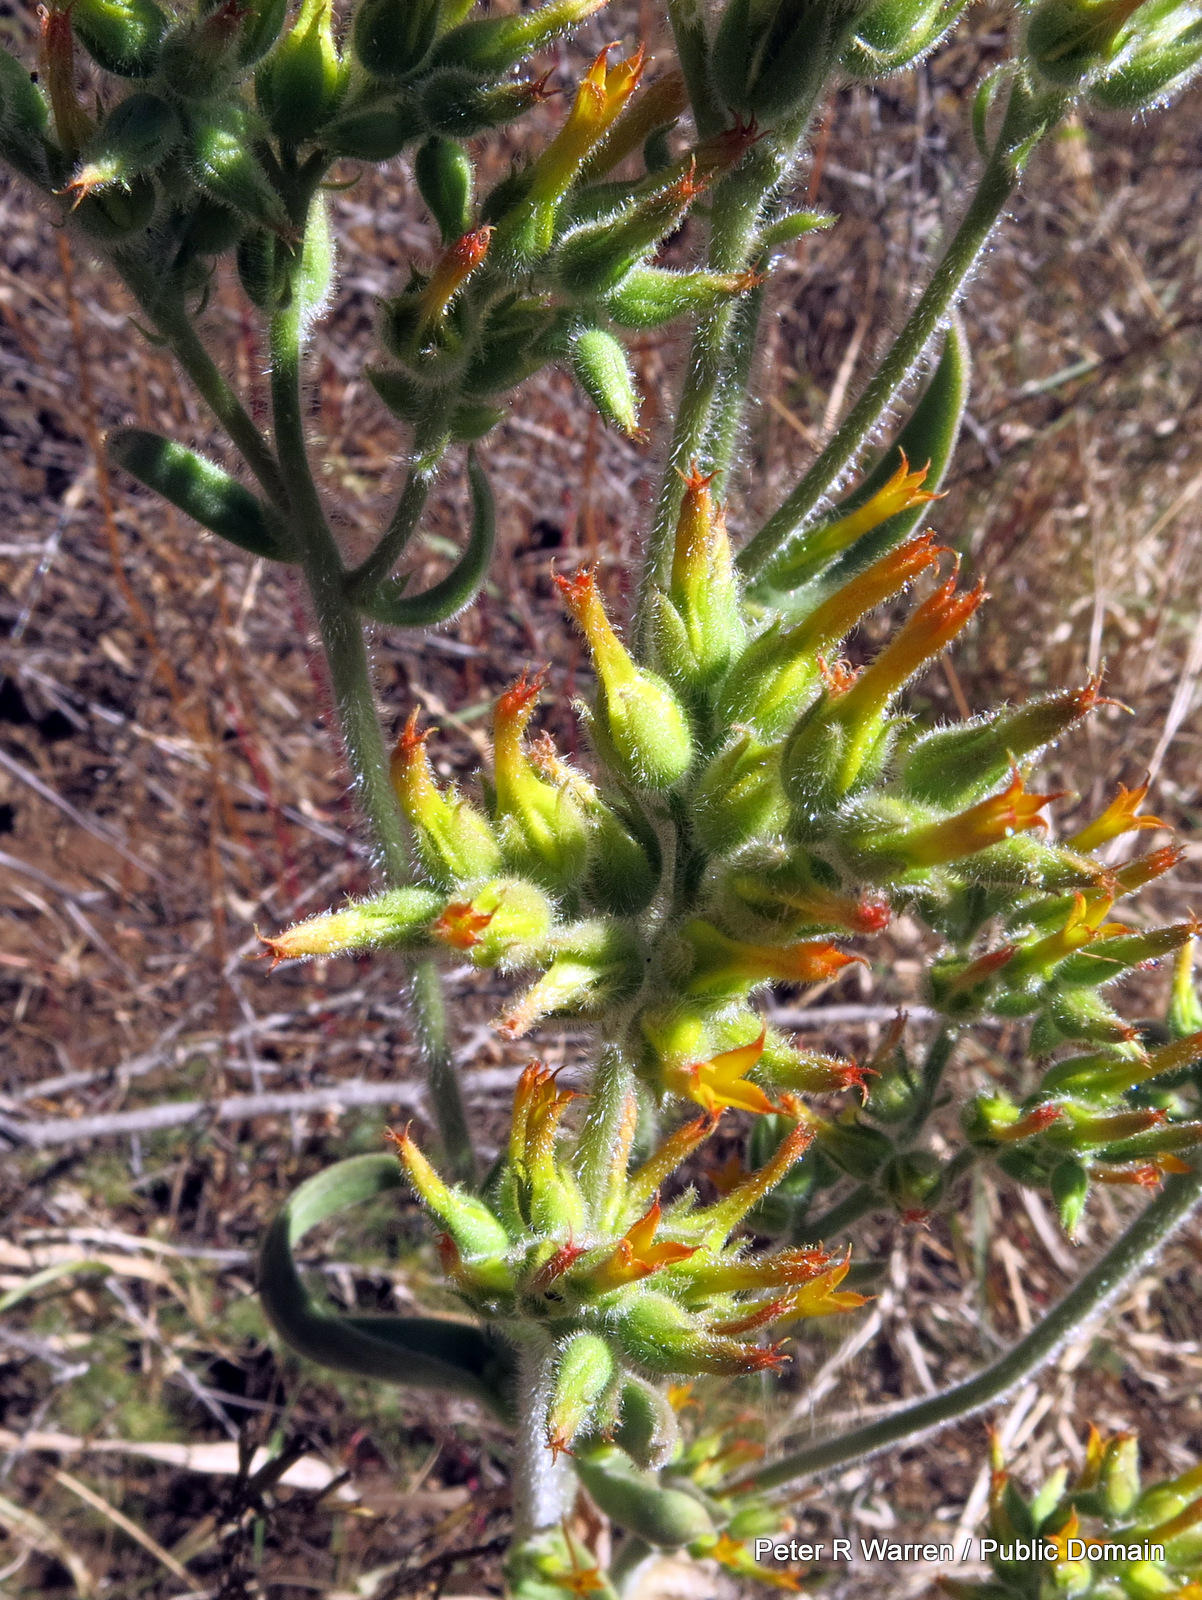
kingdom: Plantae
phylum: Tracheophyta
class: Magnoliopsida
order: Saxifragales
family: Crassulaceae
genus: Kalanchoe
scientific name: Kalanchoe lanceolata
